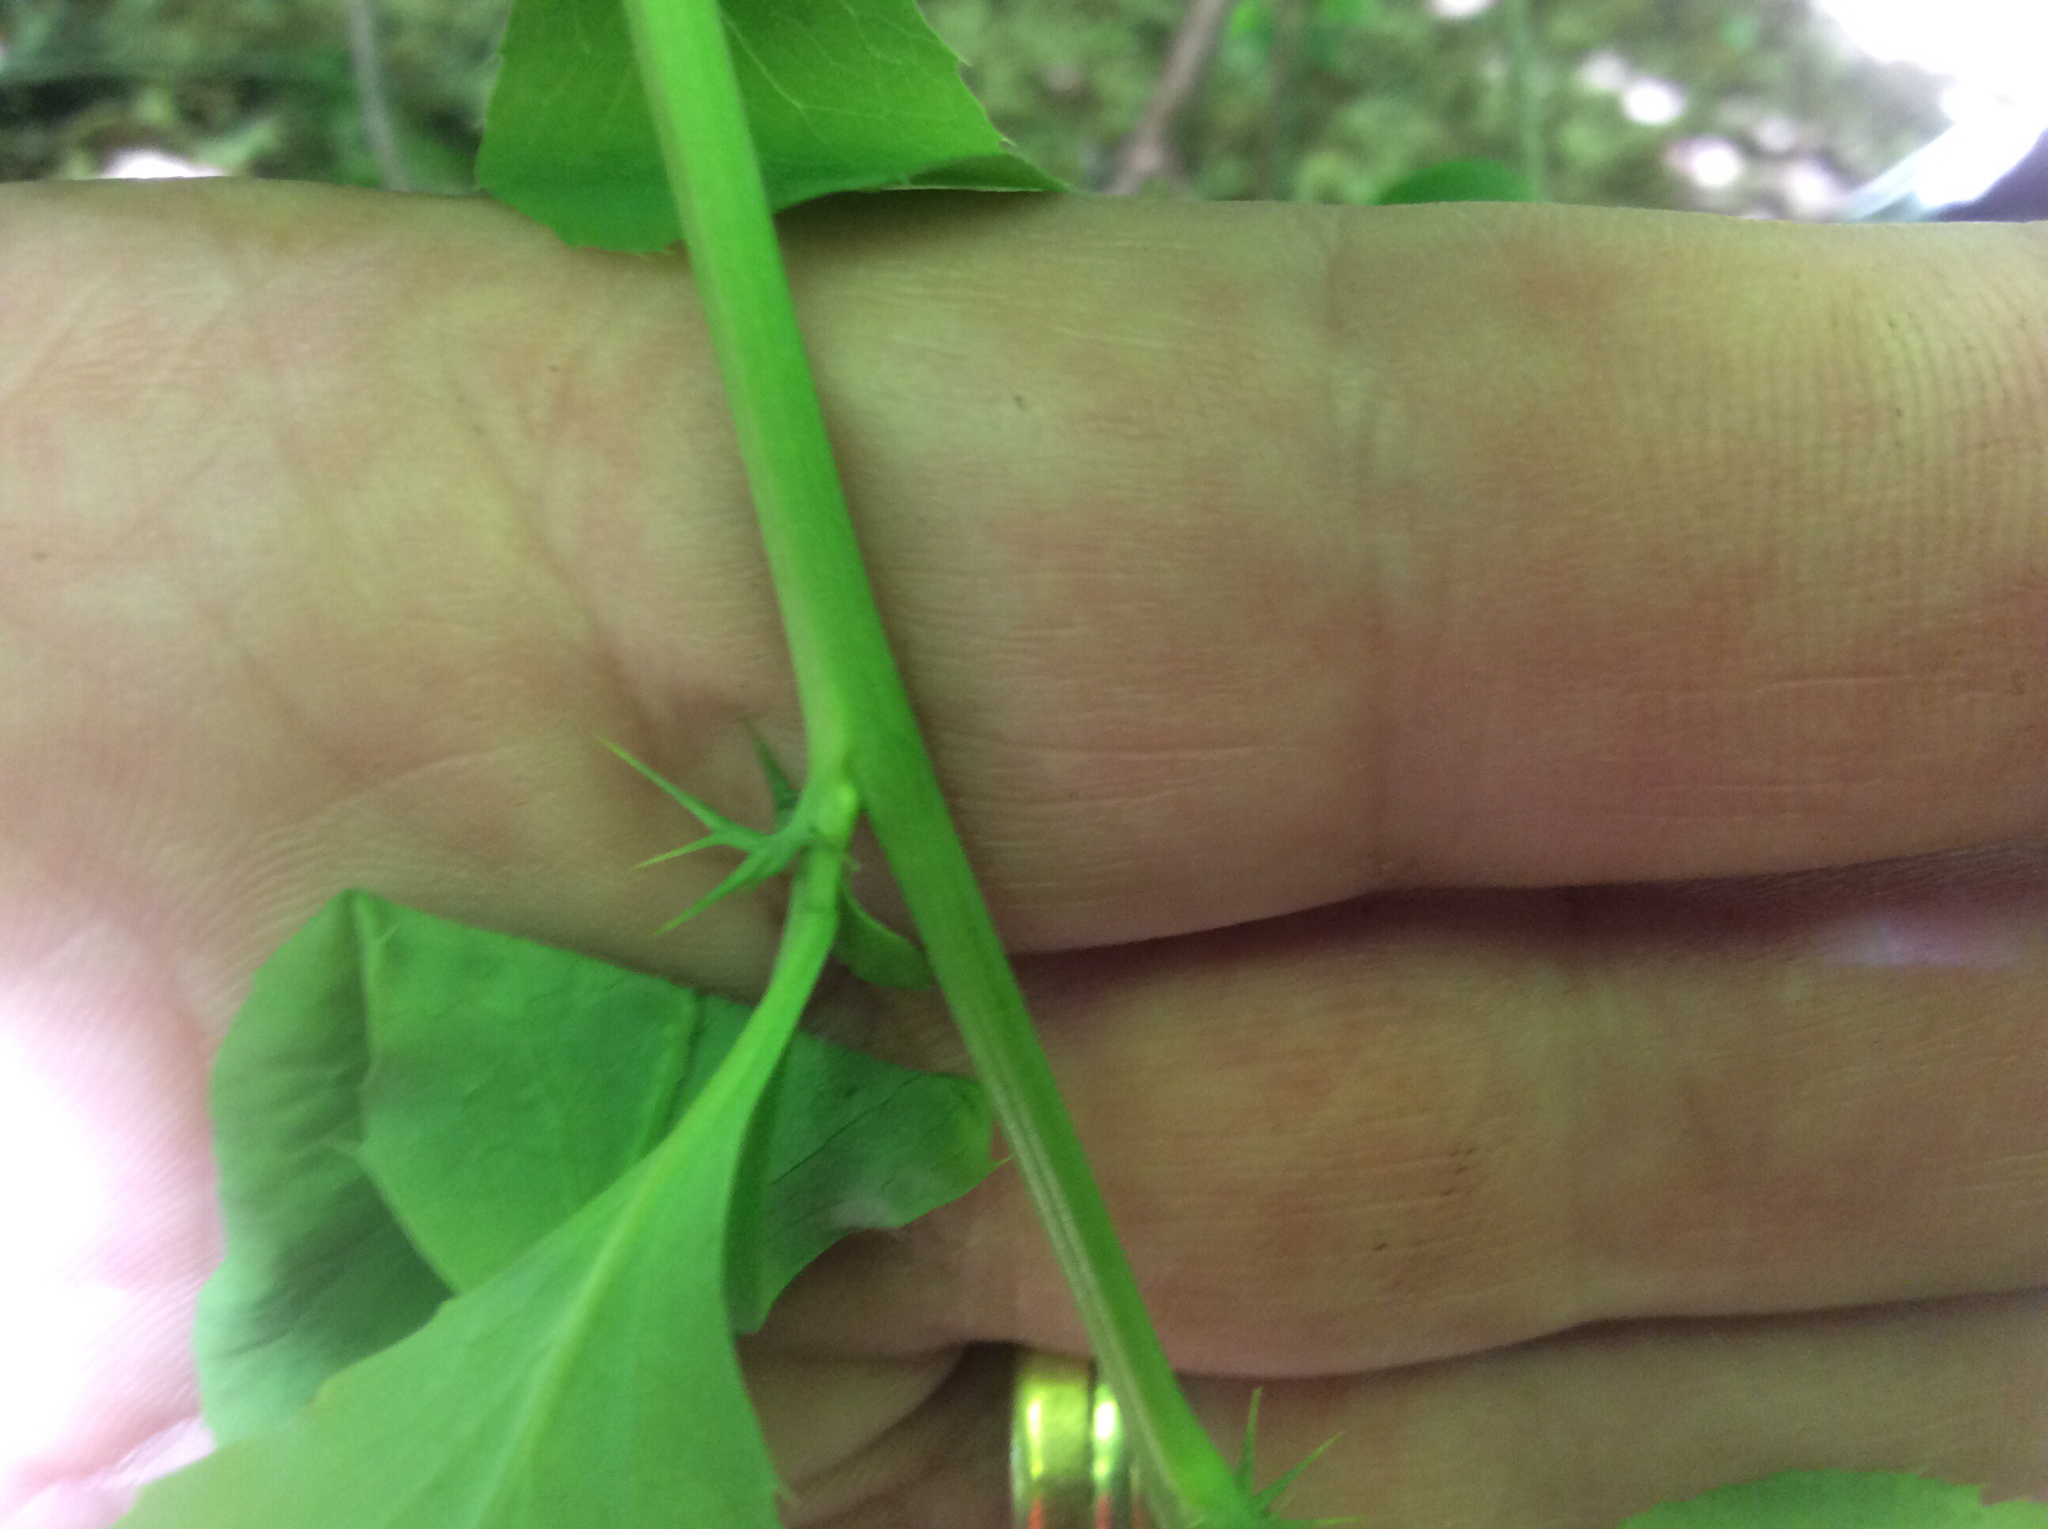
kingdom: Plantae
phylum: Tracheophyta
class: Magnoliopsida
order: Ranunculales
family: Berberidaceae
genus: Berberis
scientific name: Berberis vulgaris
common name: Barberry
